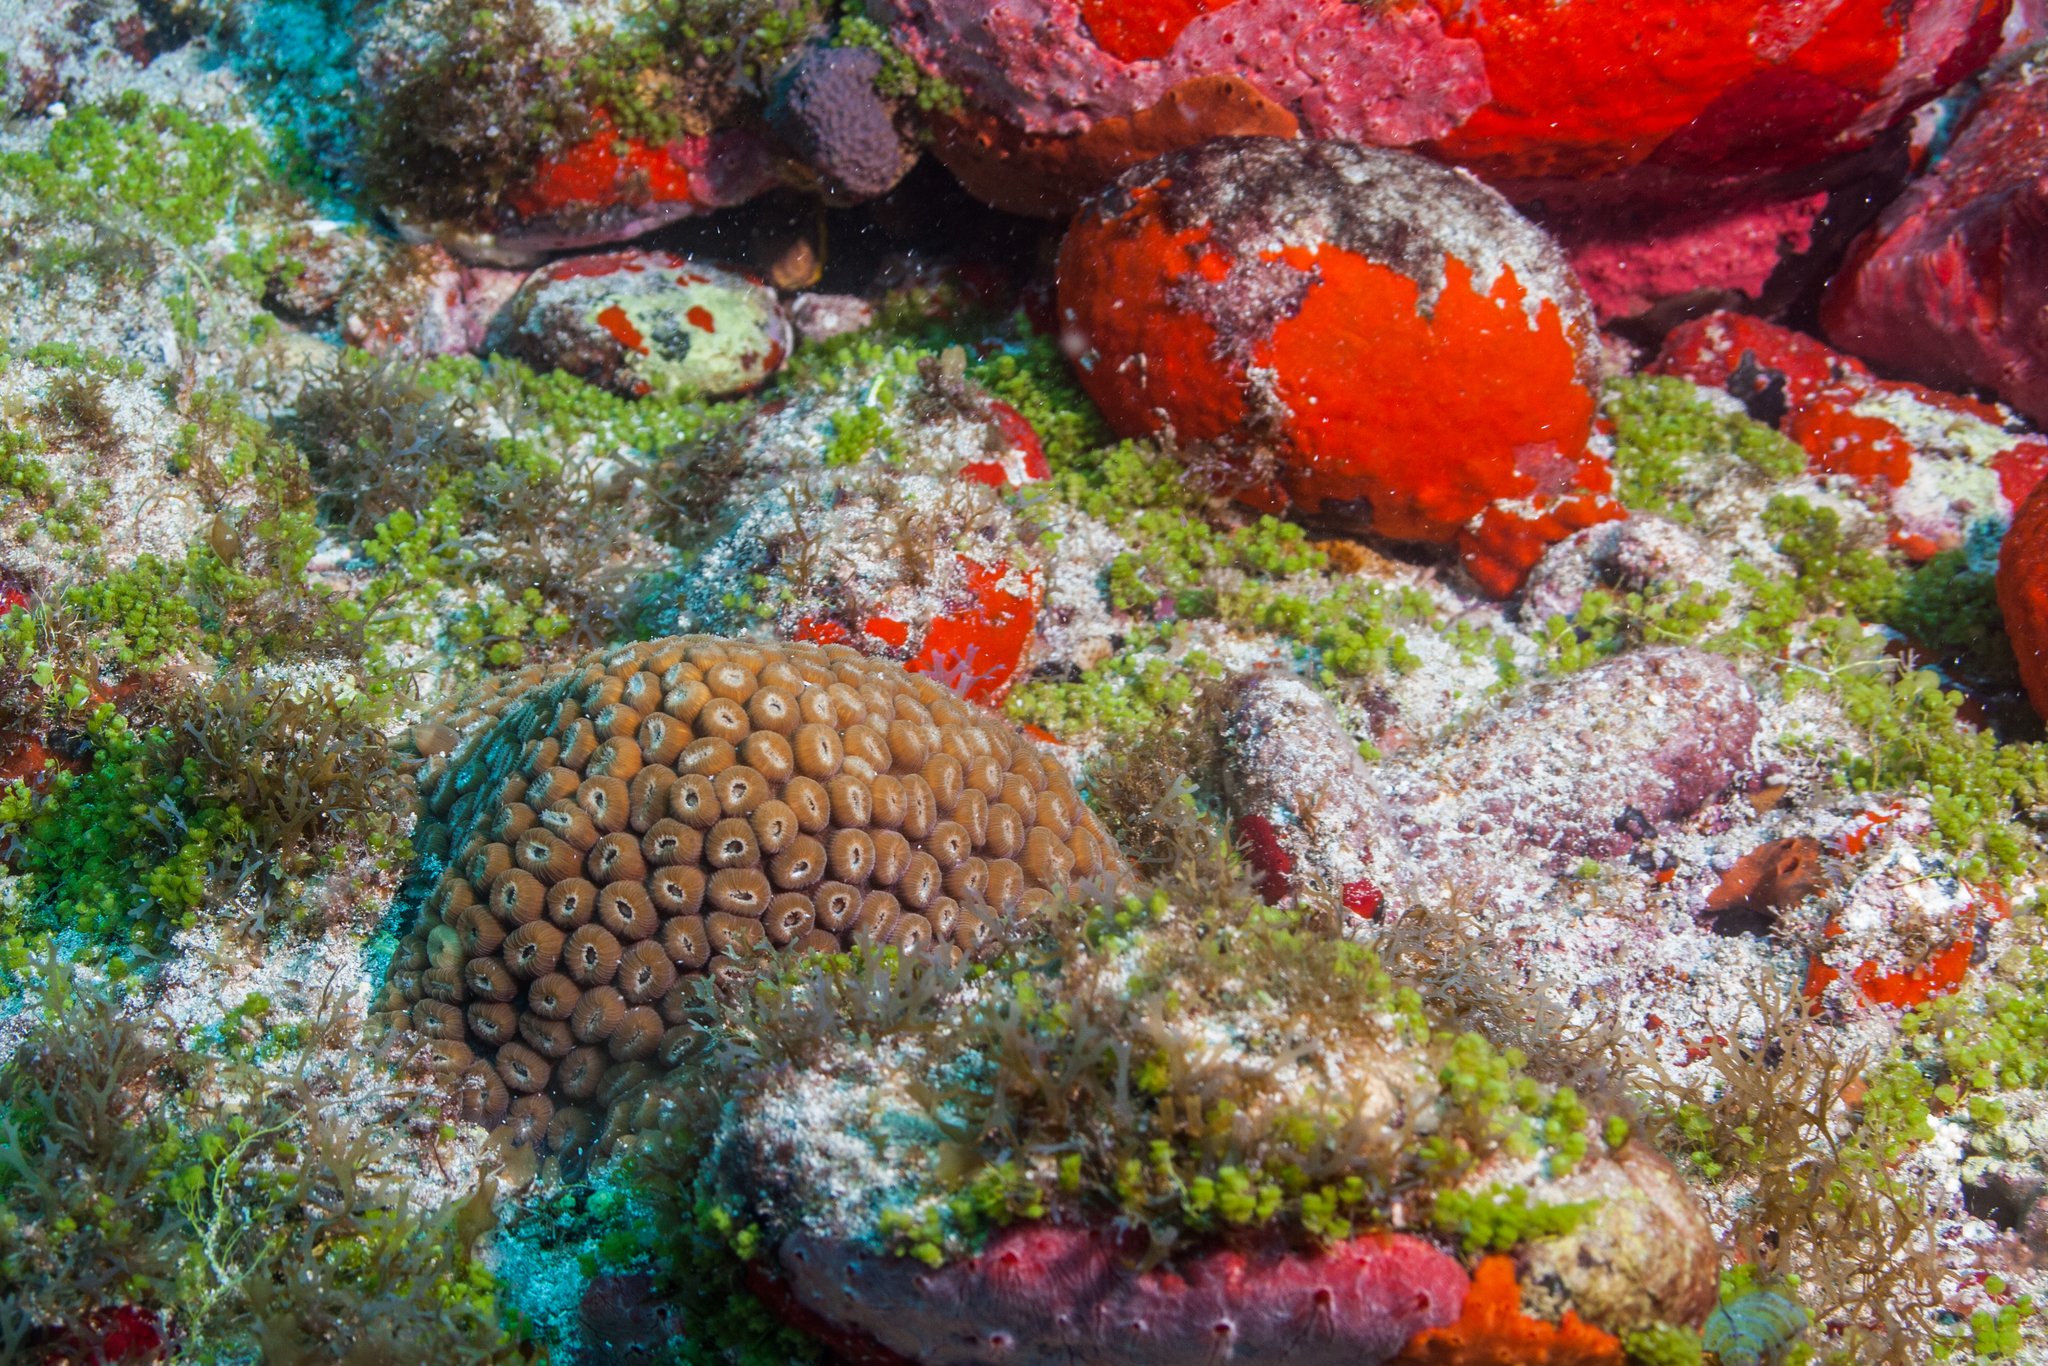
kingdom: Animalia
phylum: Cnidaria
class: Anthozoa
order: Scleractinia
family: Montastraeidae
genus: Montastraea
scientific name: Montastraea cavernosa
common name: Great star coral
